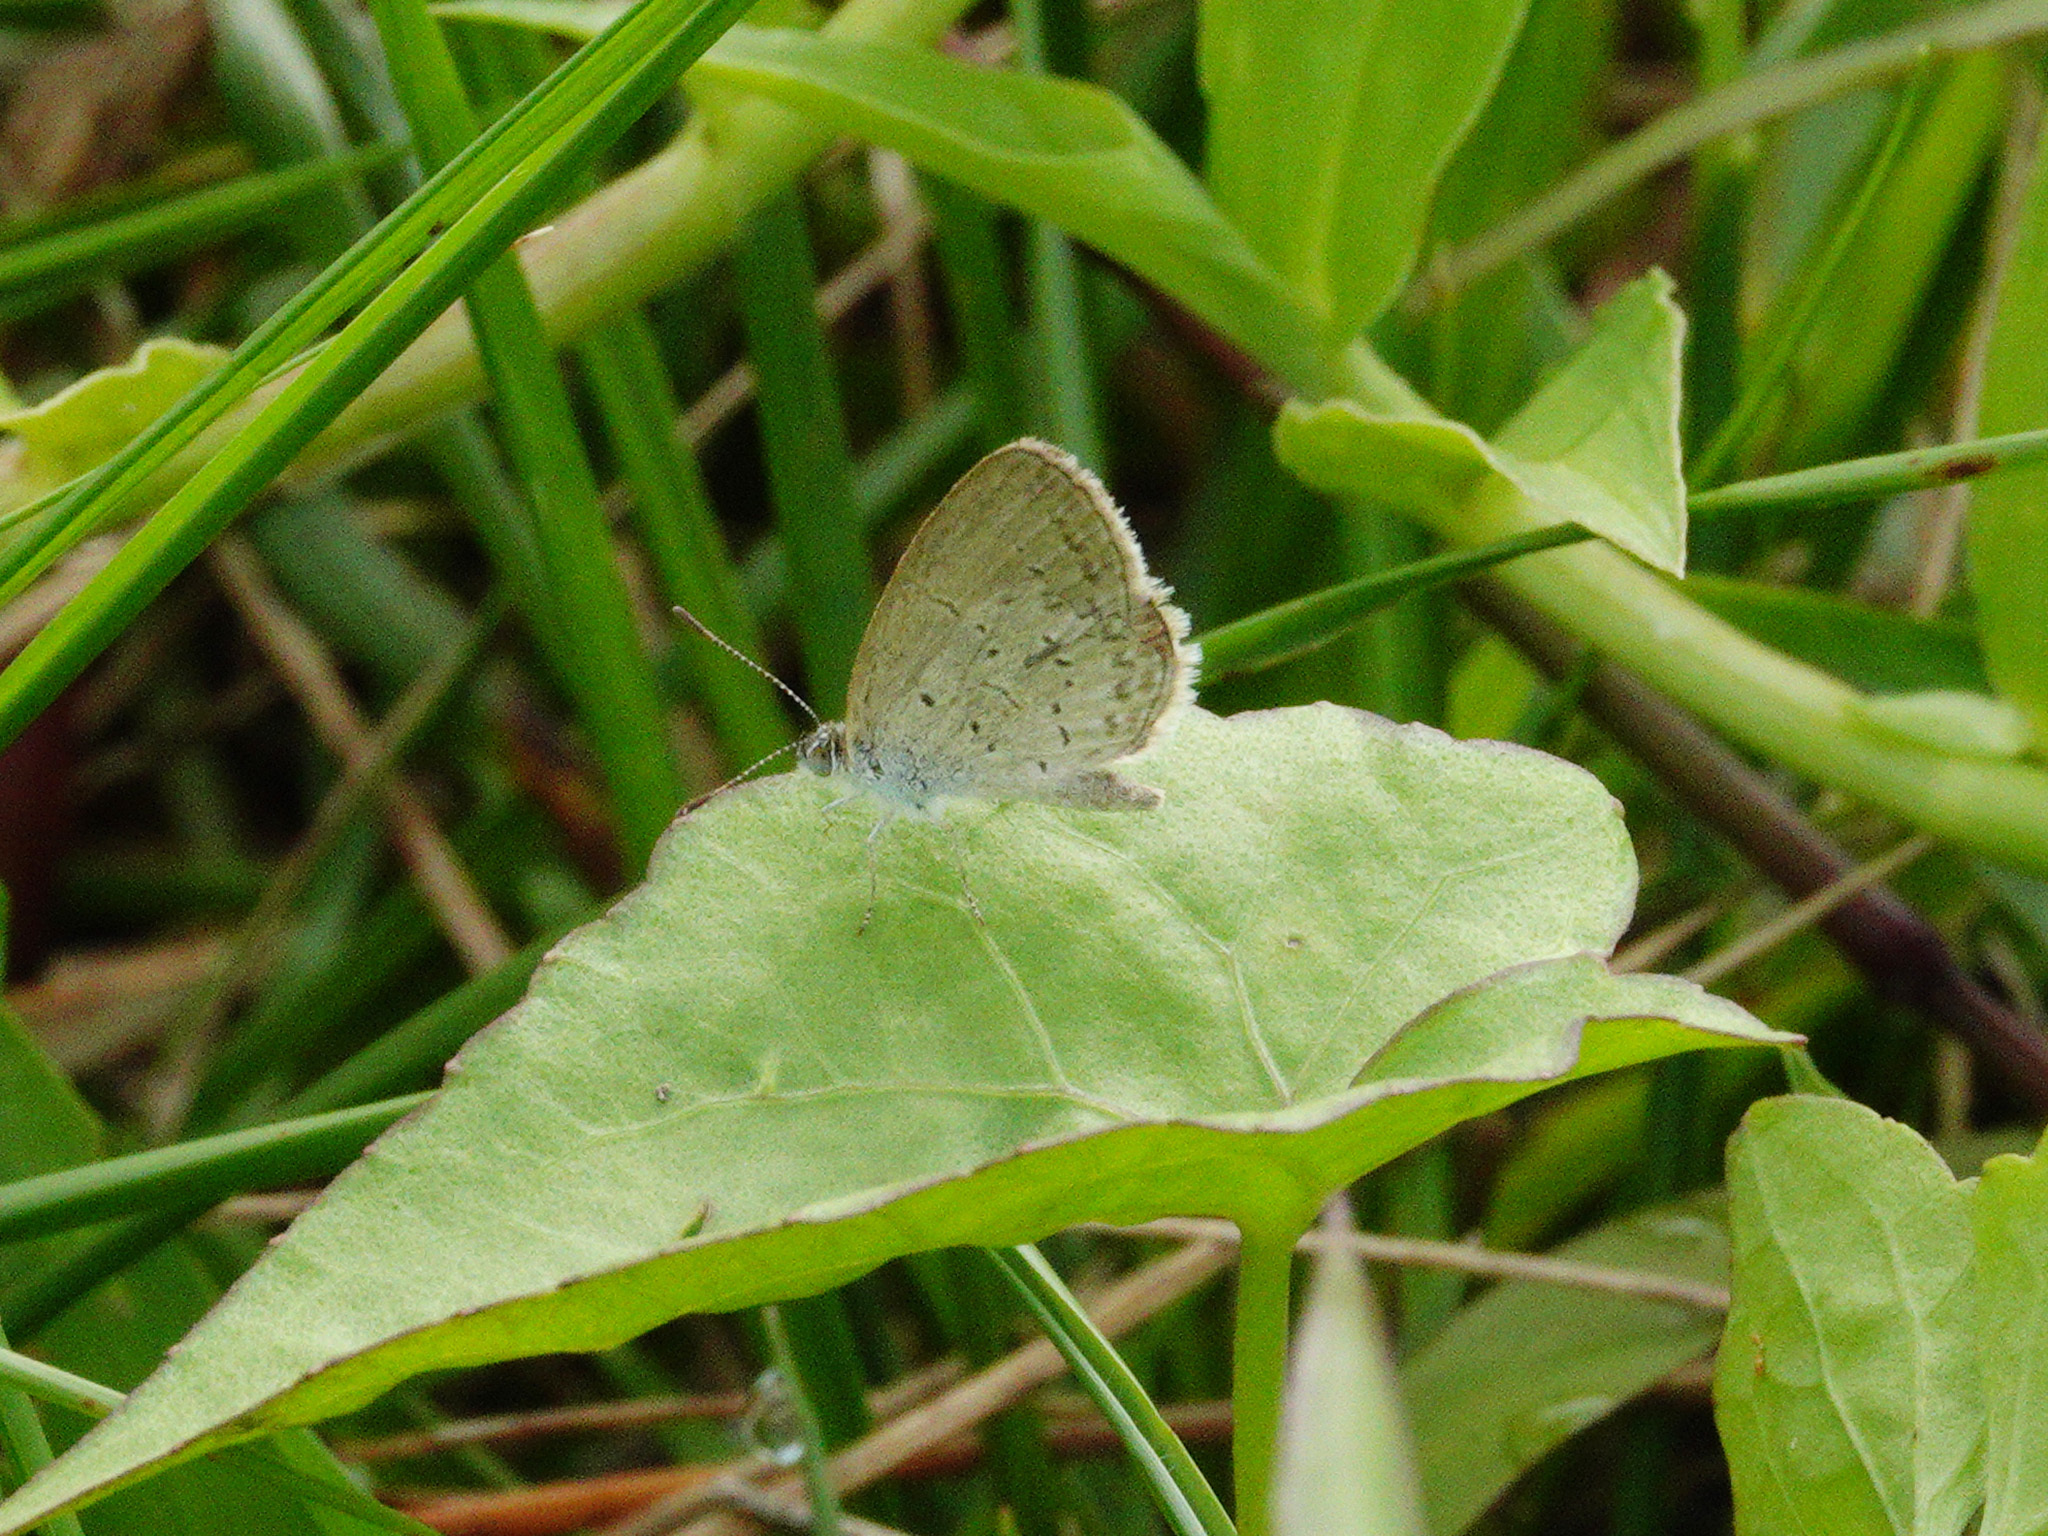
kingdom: Animalia
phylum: Arthropoda
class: Insecta
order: Lepidoptera
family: Lycaenidae
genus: Zizina
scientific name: Zizina otis
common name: Lesser grass blue
